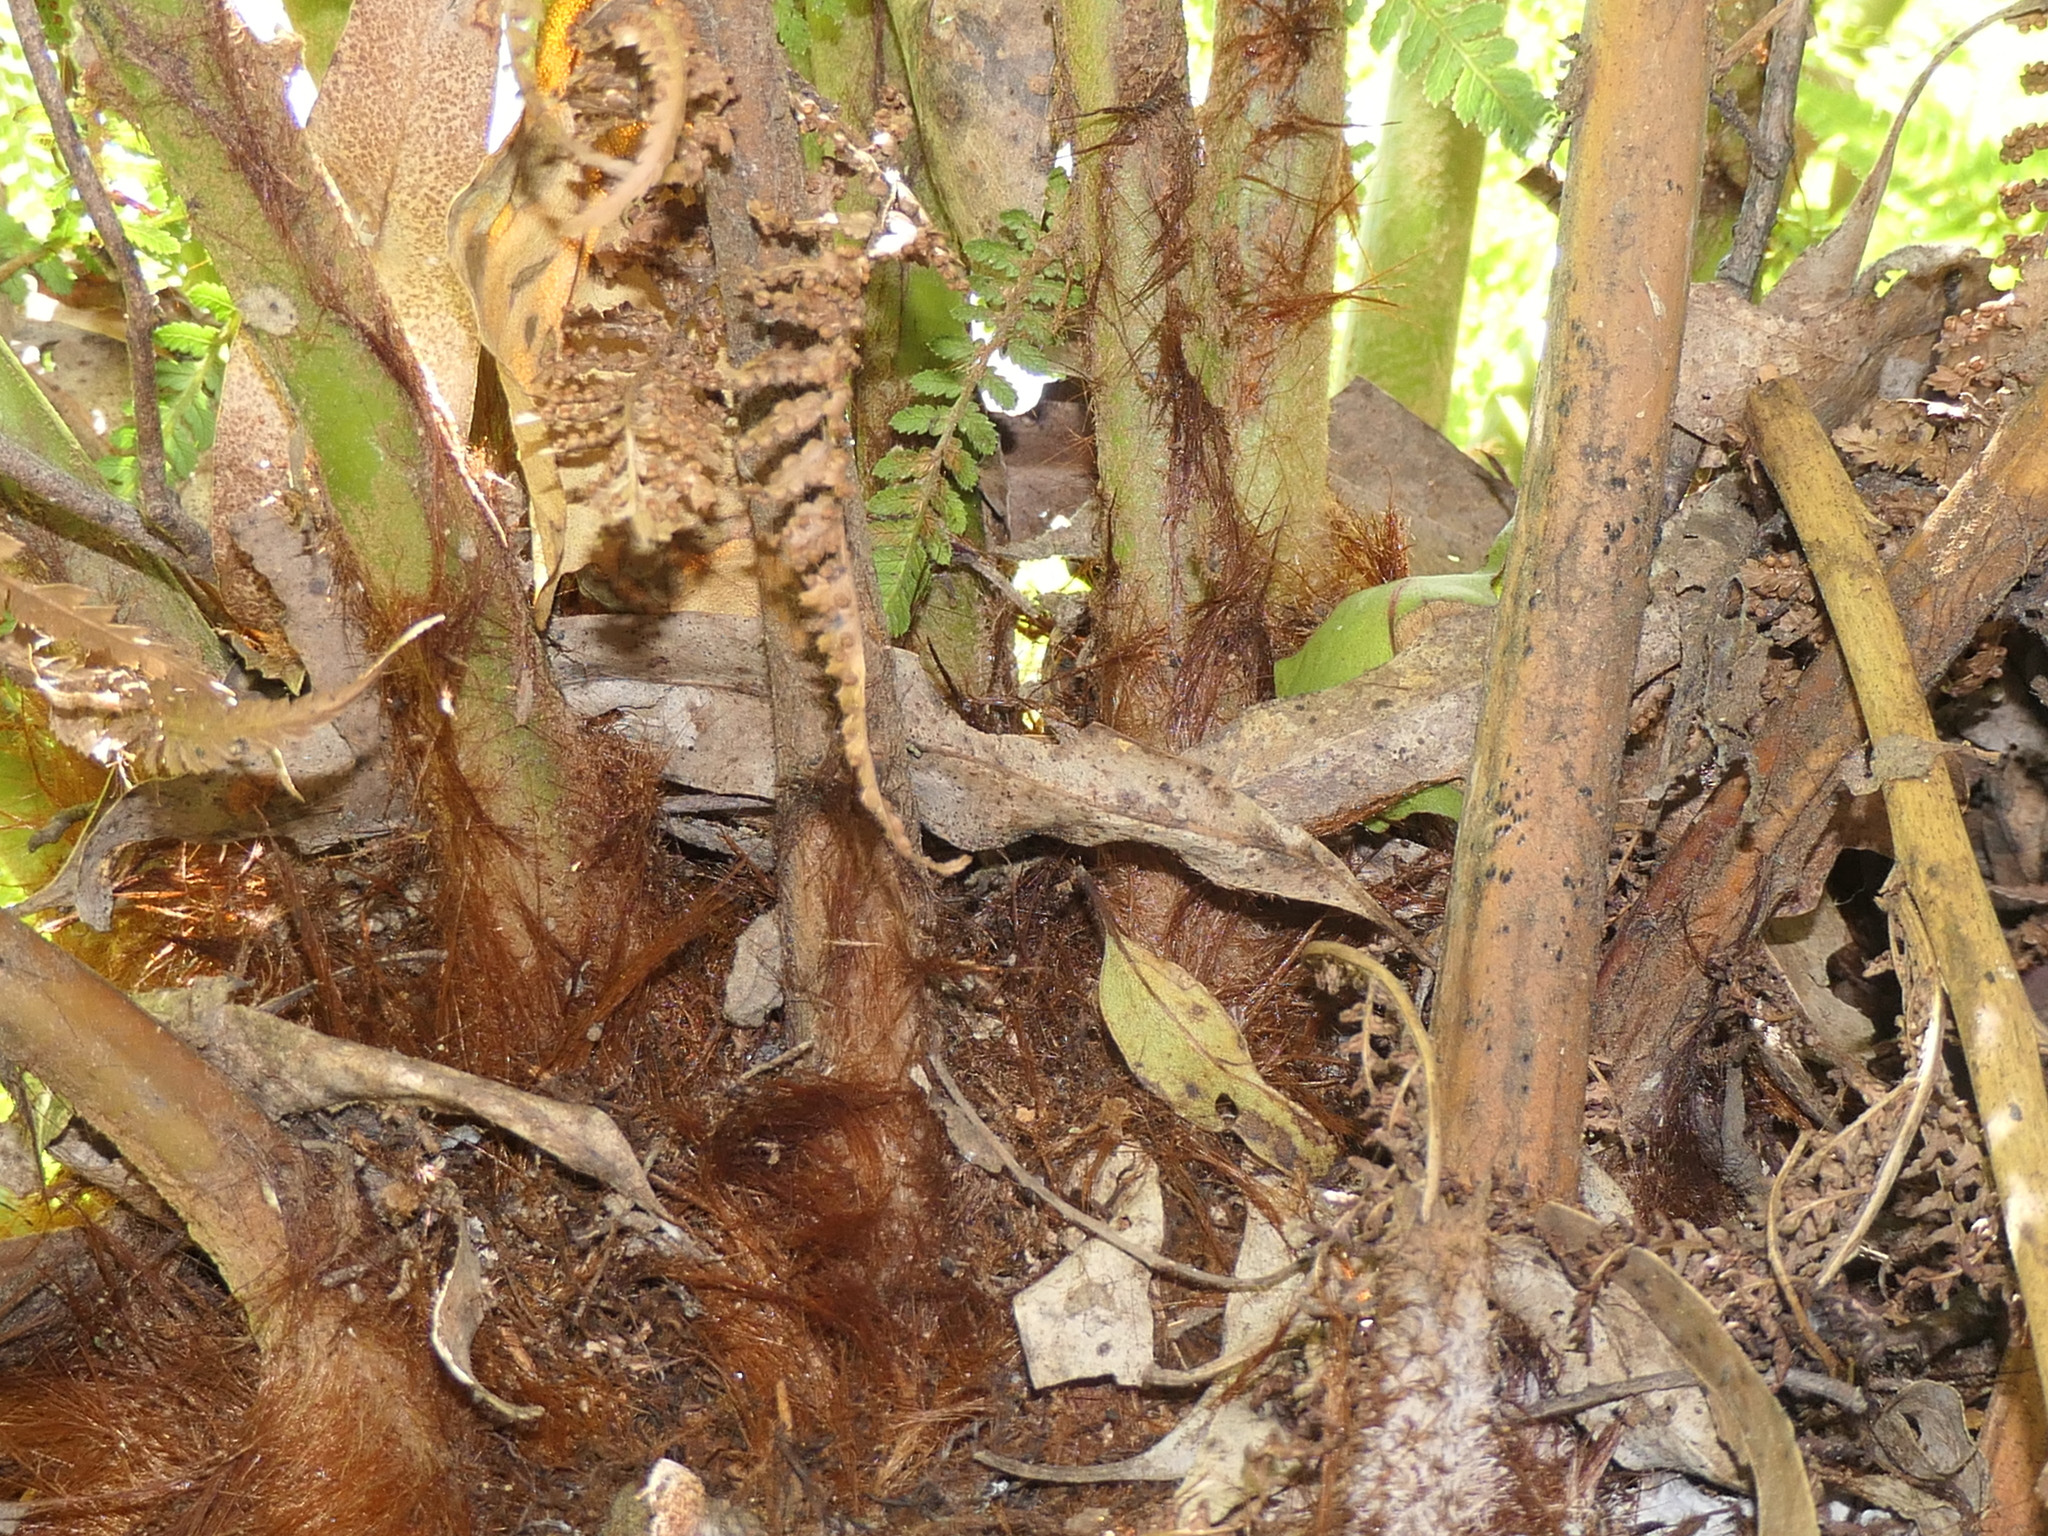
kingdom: Plantae
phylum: Tracheophyta
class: Polypodiopsida
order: Cyatheales
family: Dicksoniaceae
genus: Dicksonia
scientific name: Dicksonia antarctica
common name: Australian treefern
